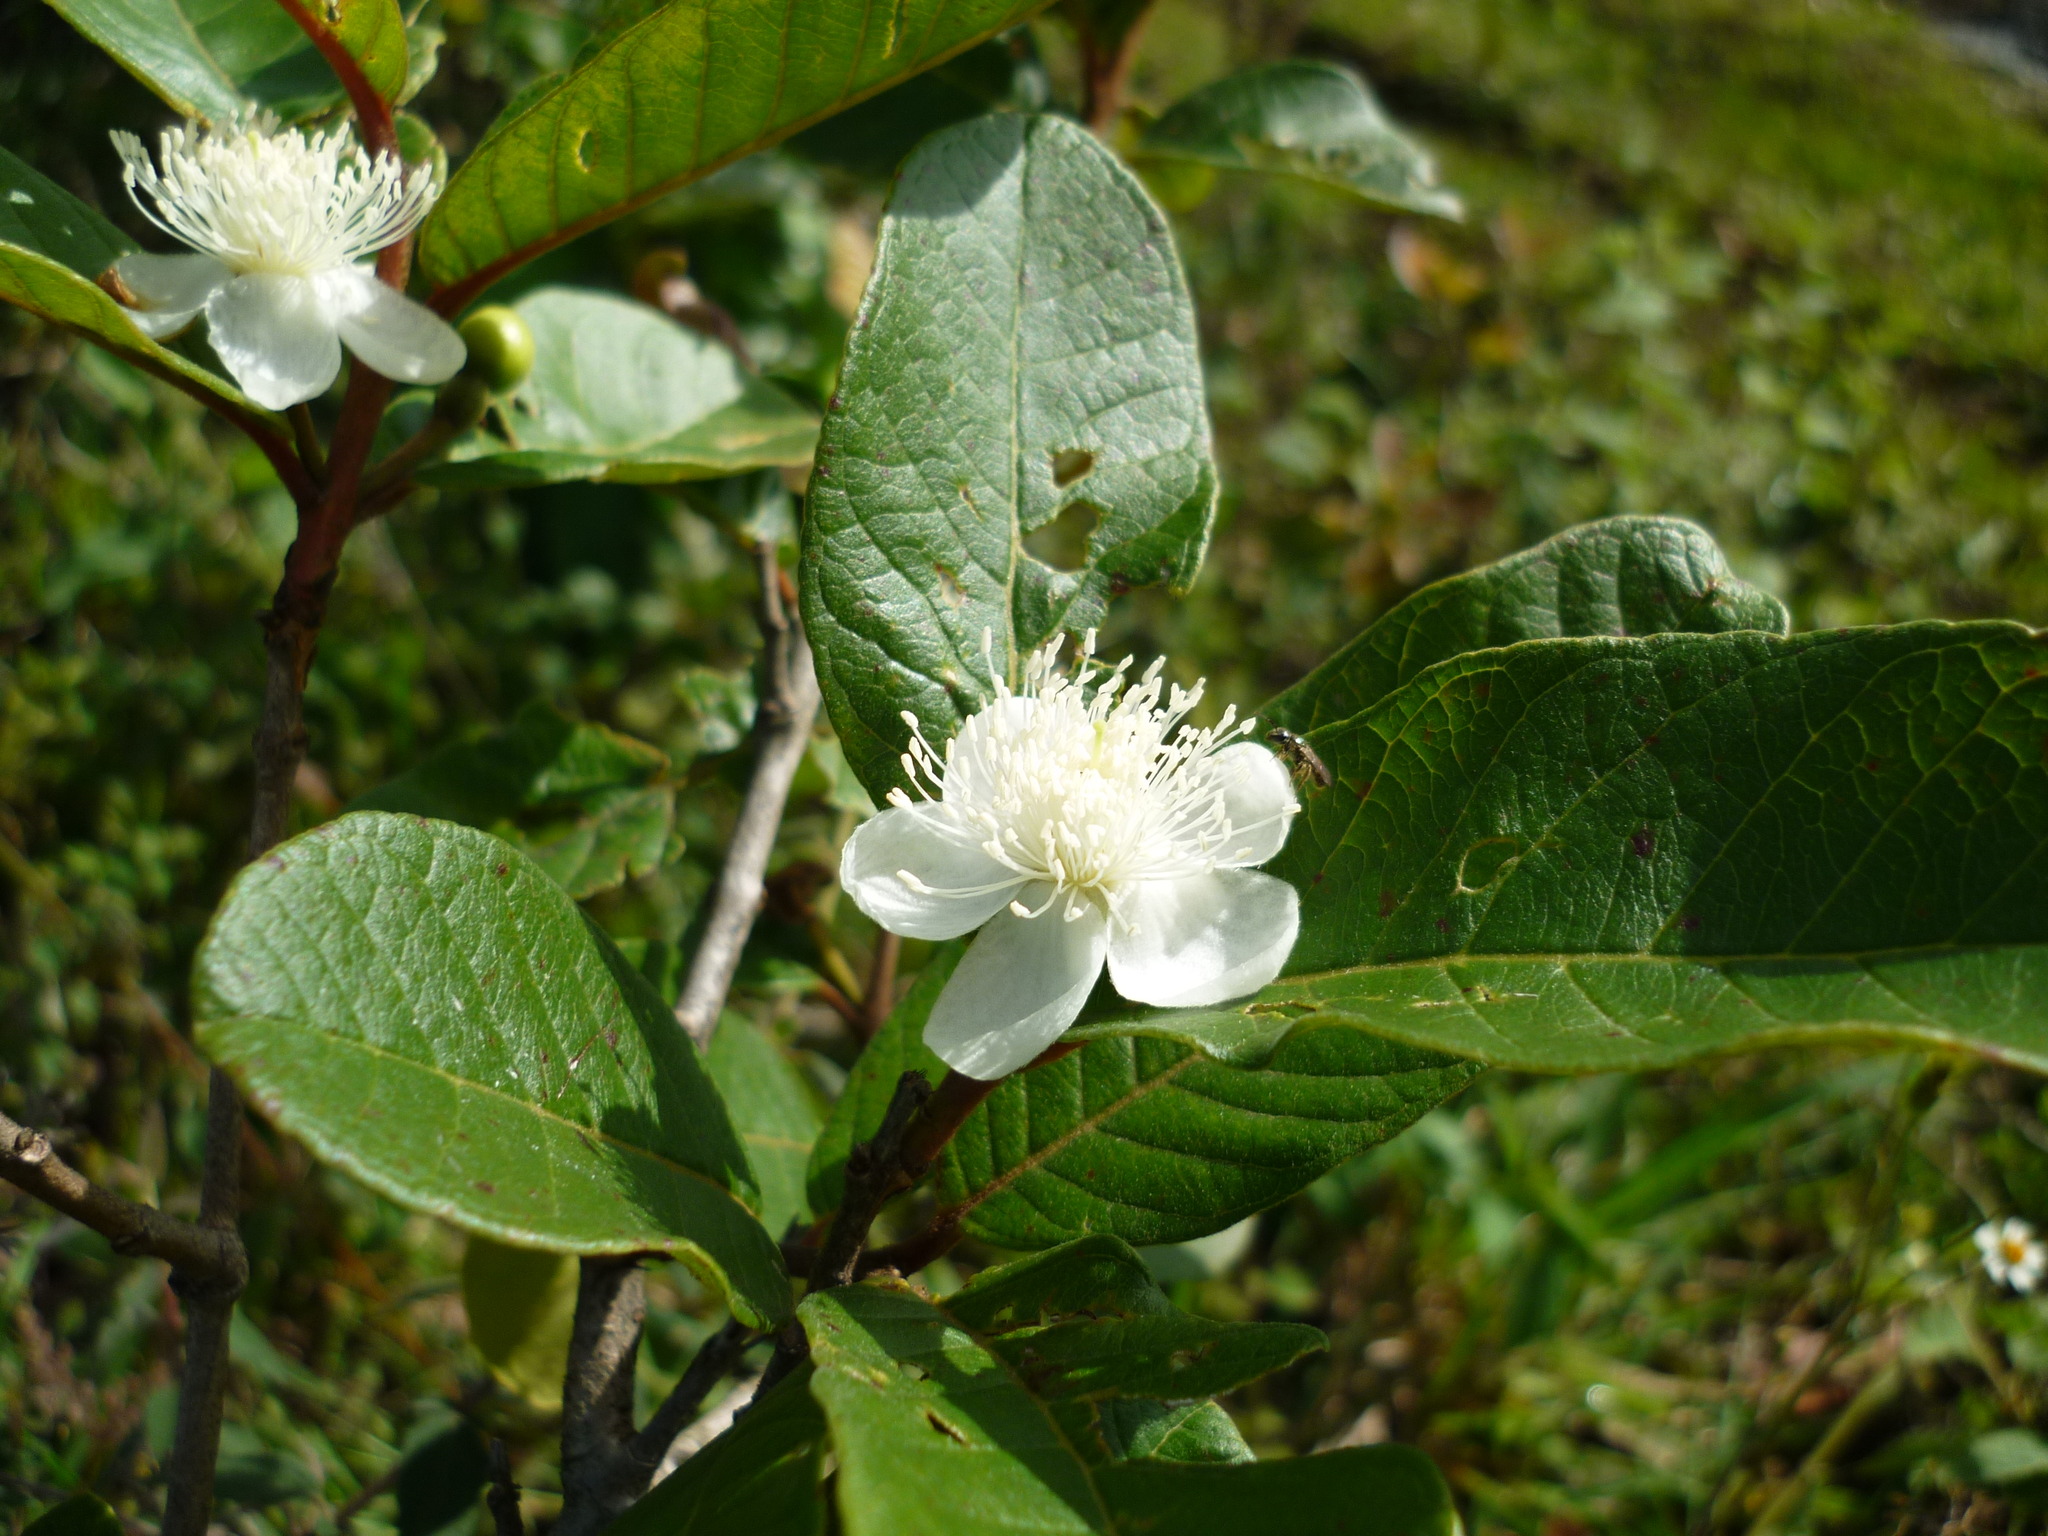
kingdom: Plantae
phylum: Tracheophyta
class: Magnoliopsida
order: Myrtales
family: Myrtaceae
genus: Psidium
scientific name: Psidium guineense
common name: Brazilian guava
